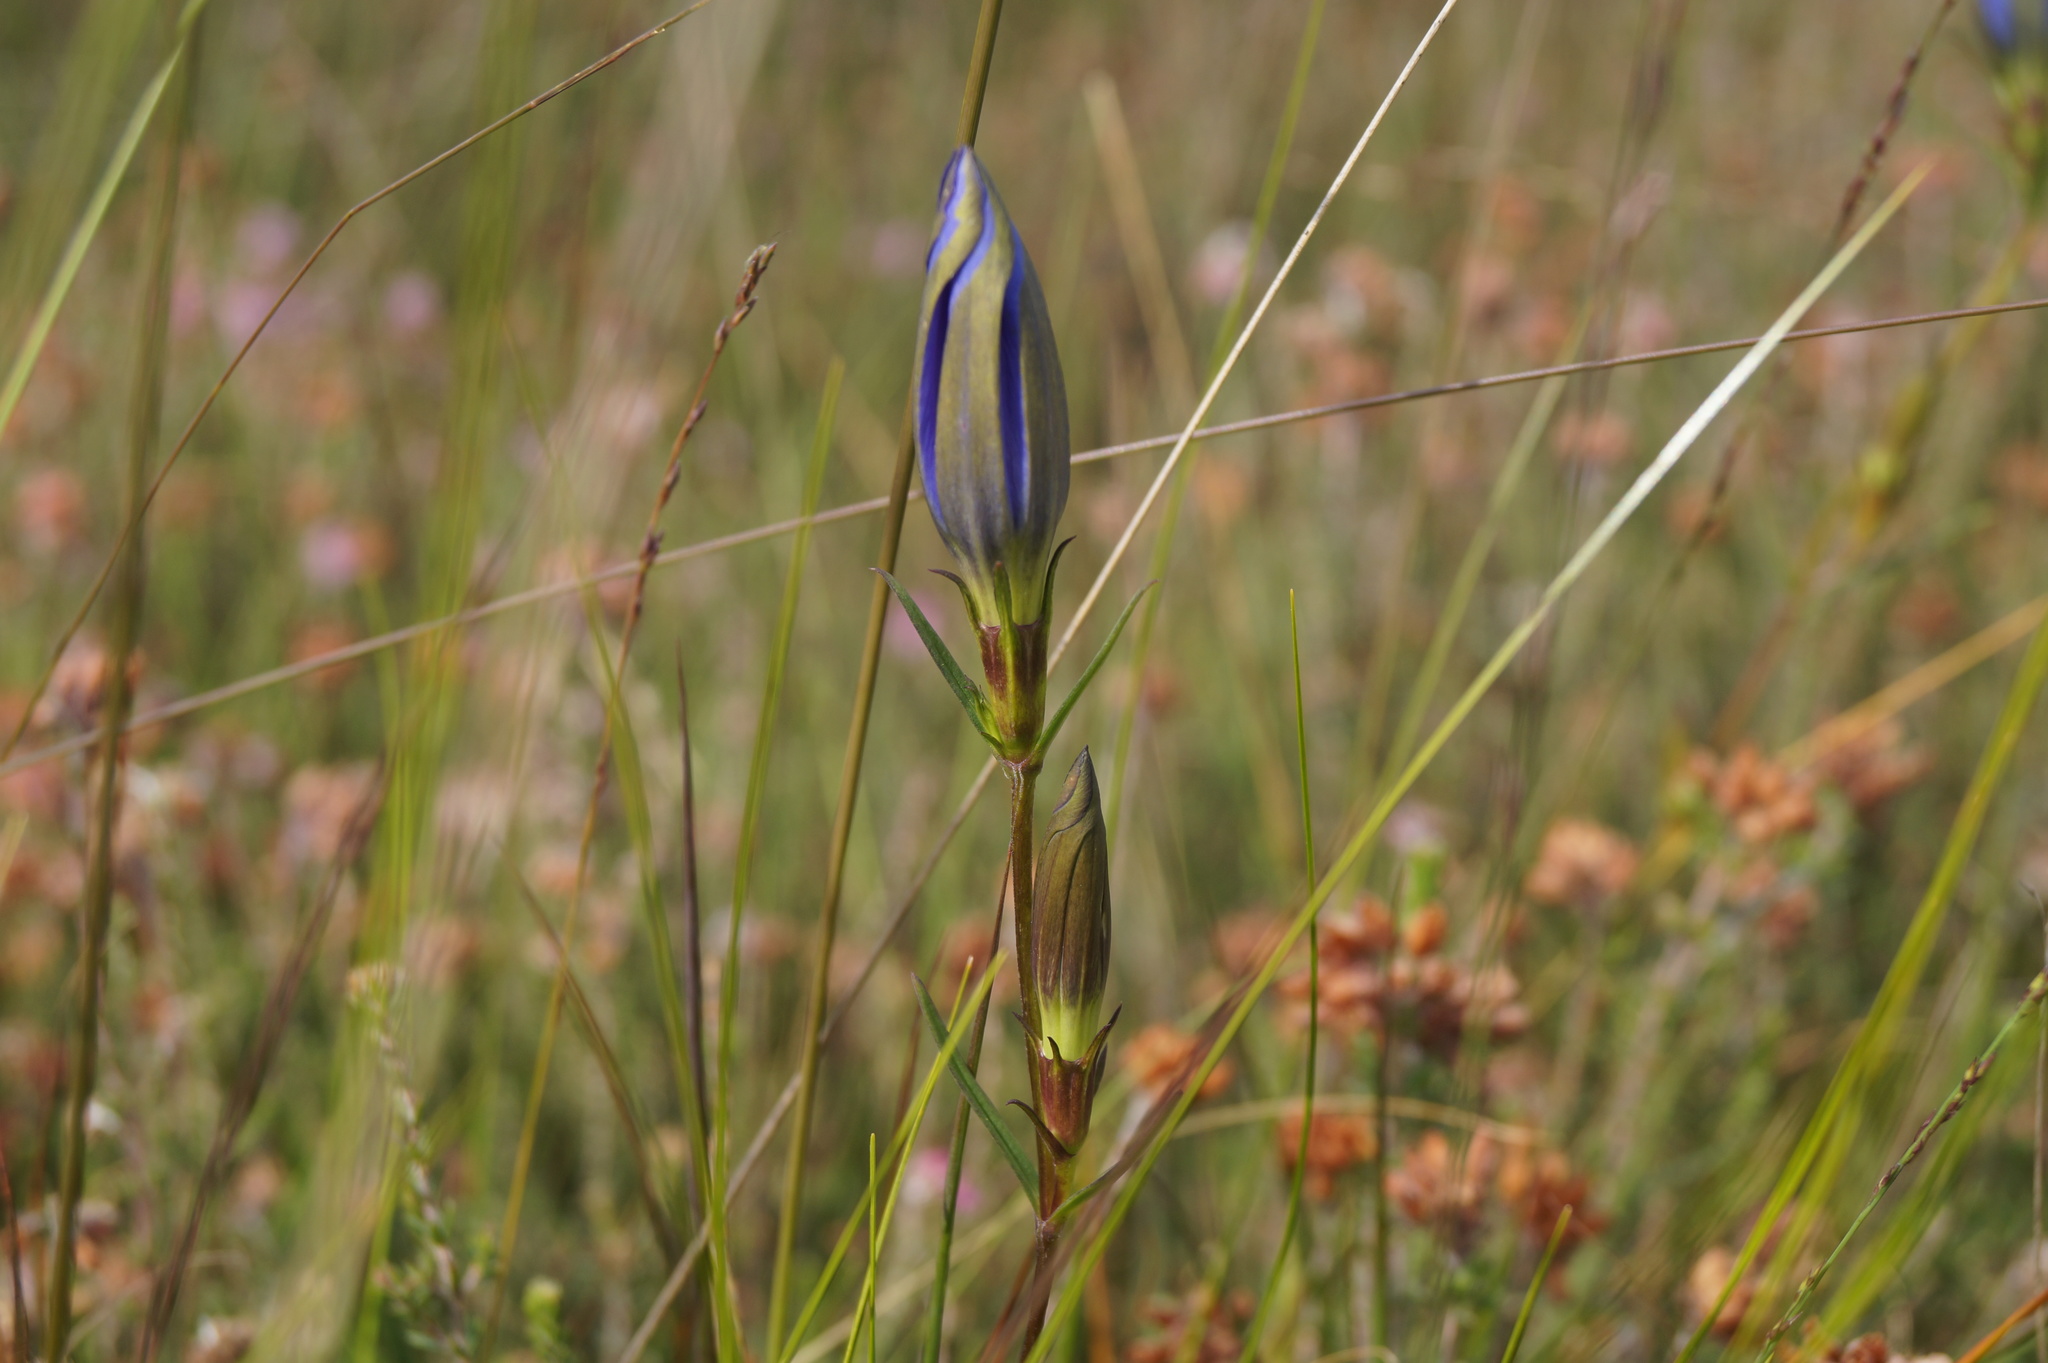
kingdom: Plantae
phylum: Tracheophyta
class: Magnoliopsida
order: Gentianales
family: Gentianaceae
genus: Gentiana
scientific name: Gentiana pneumonanthe
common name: Marsh gentian
